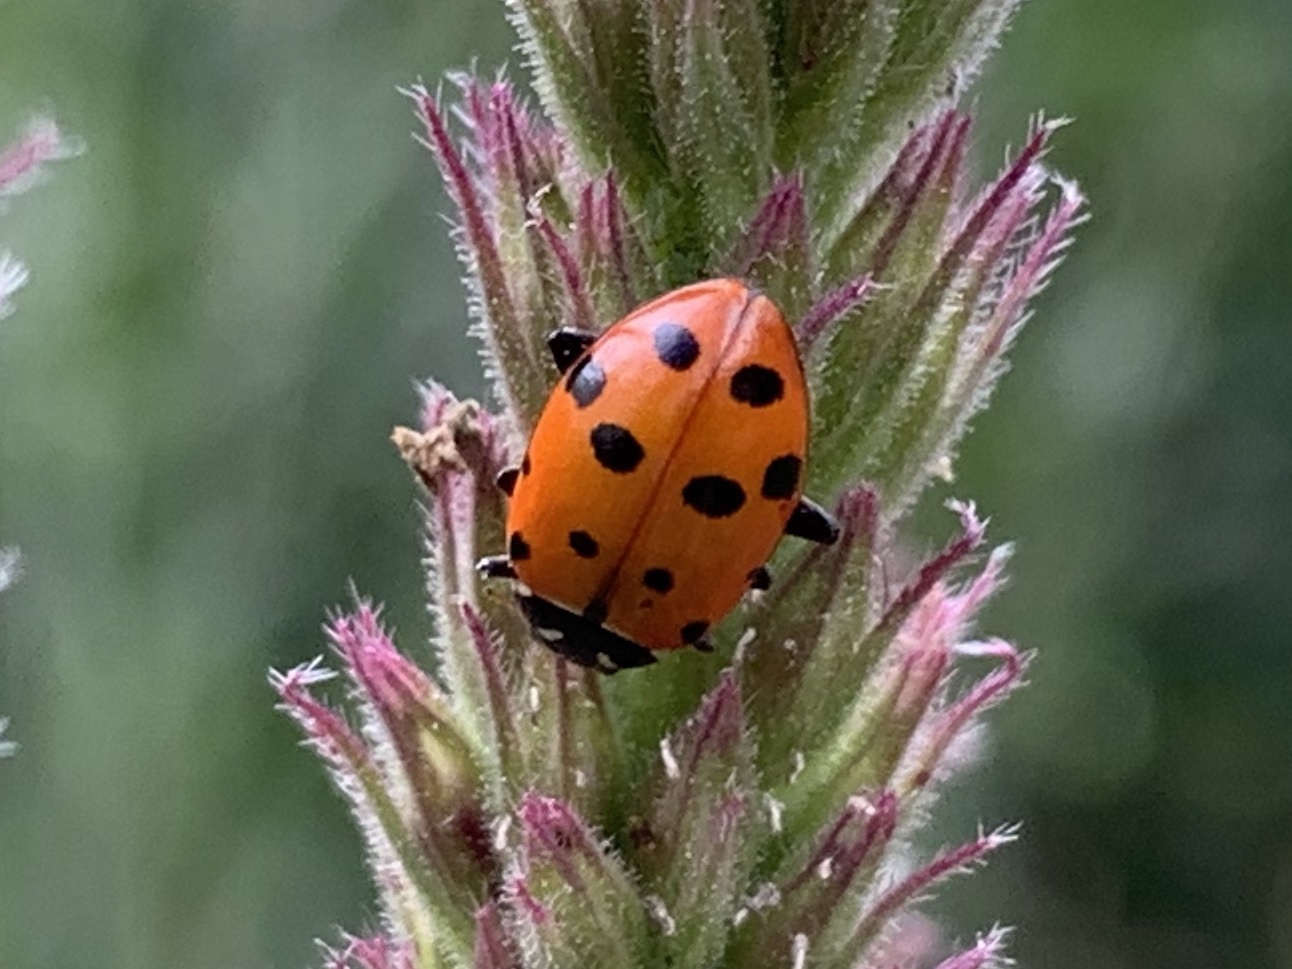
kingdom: Animalia
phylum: Arthropoda
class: Insecta
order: Coleoptera
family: Coccinellidae
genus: Hippodamia
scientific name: Hippodamia convergens
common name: Convergent lady beetle
